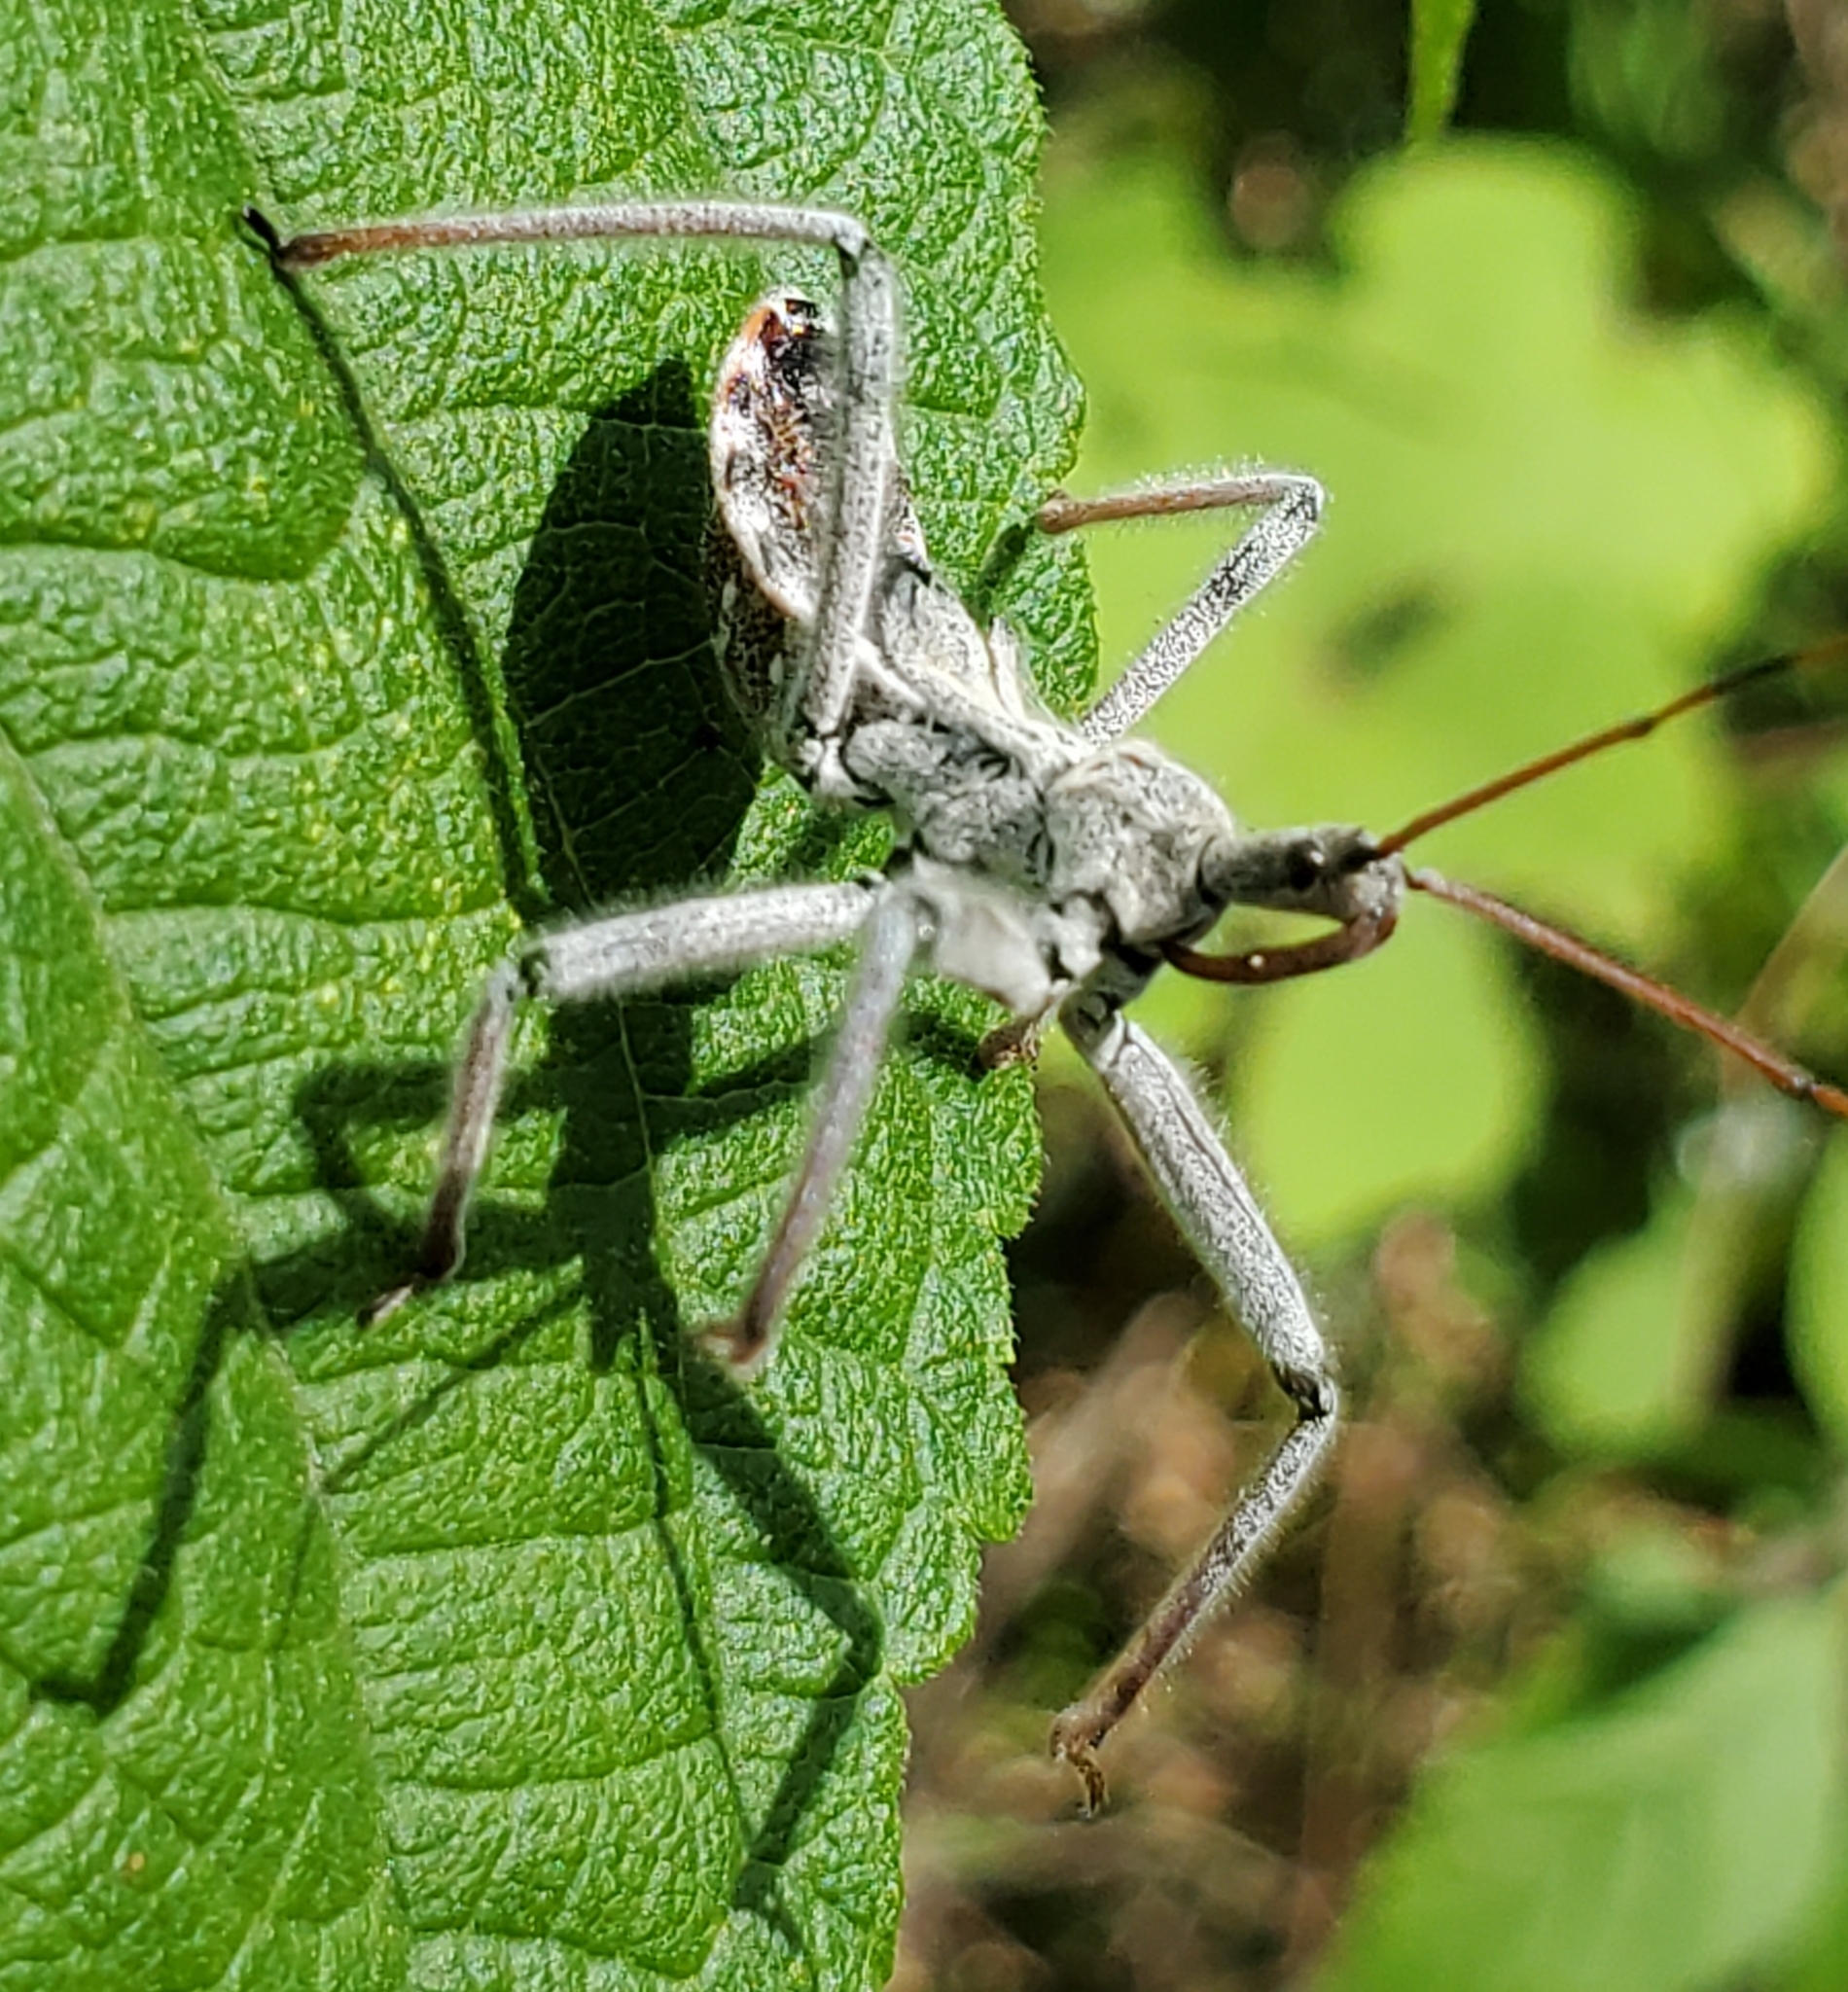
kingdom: Animalia
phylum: Arthropoda
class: Insecta
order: Hemiptera
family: Reduviidae
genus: Arilus
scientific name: Arilus cristatus
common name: North american wheel bug
